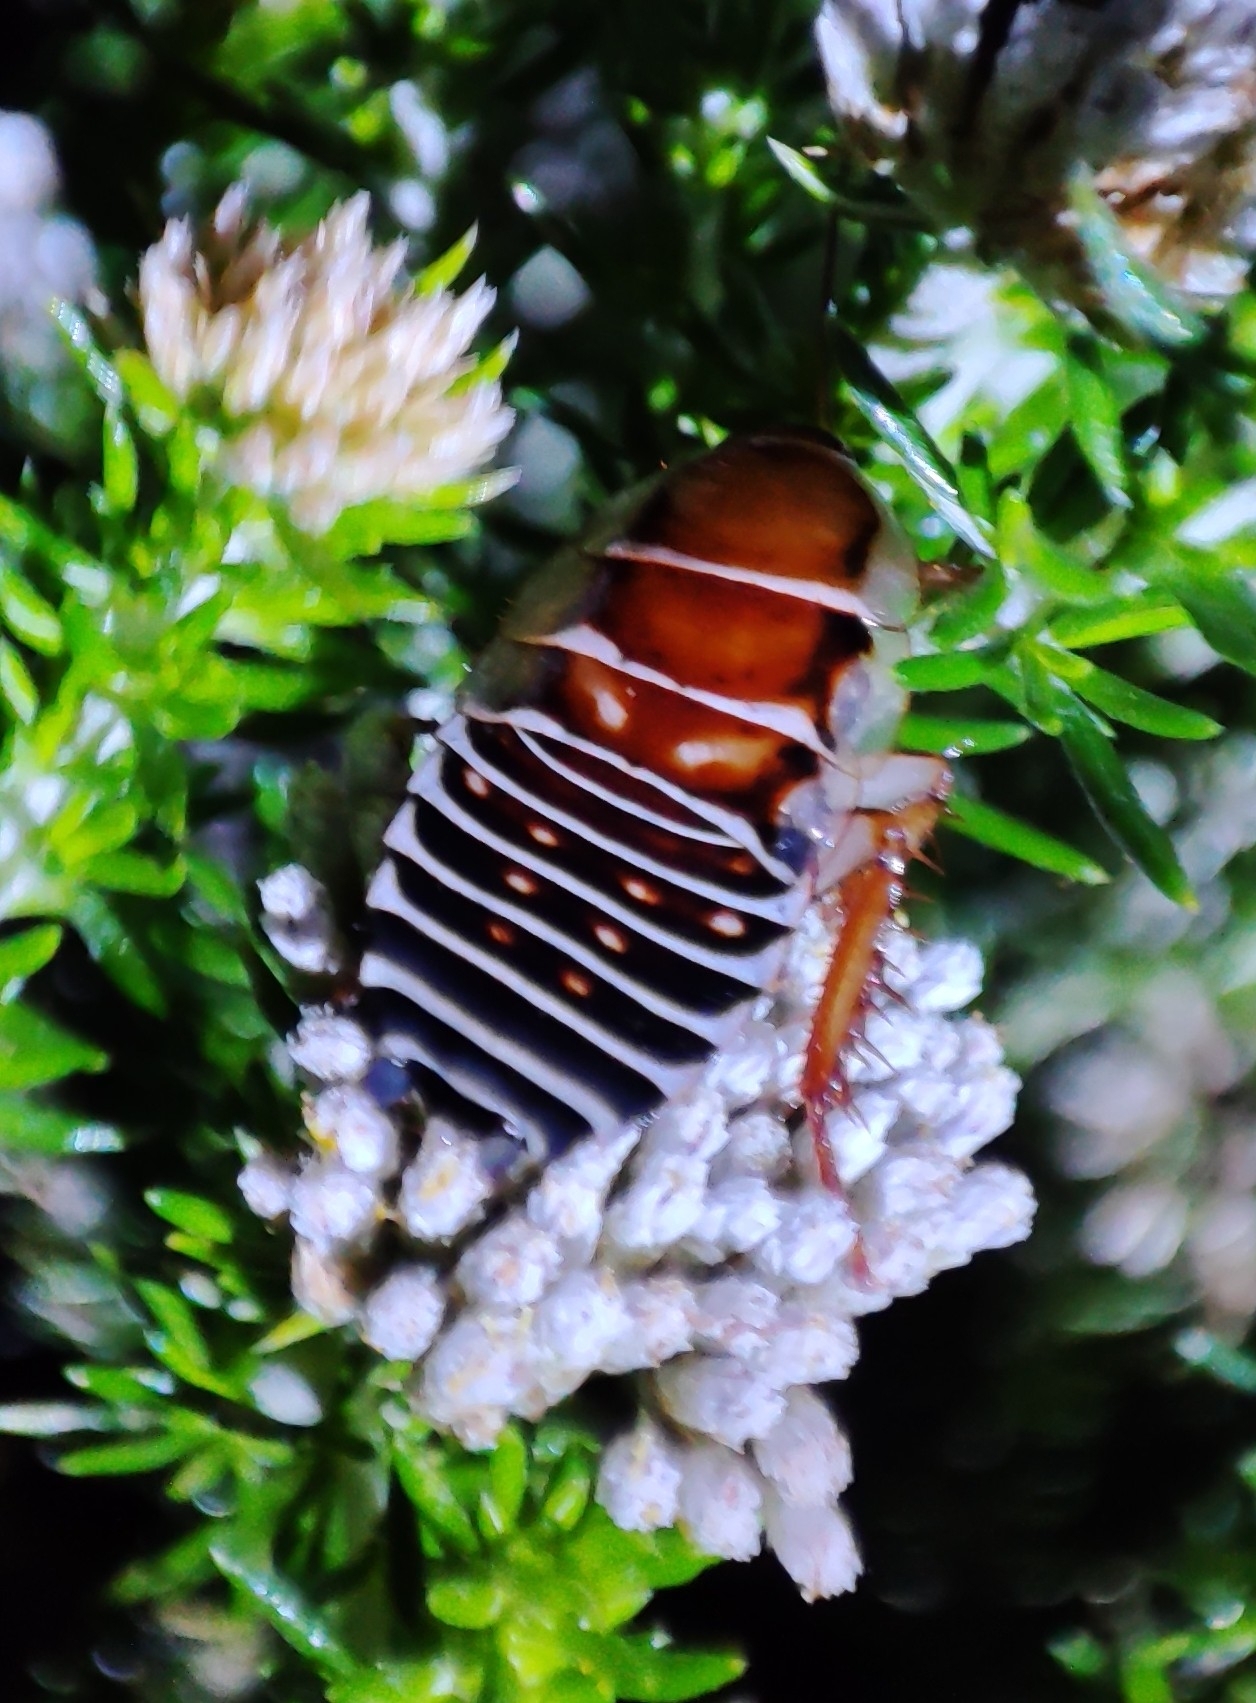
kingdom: Animalia
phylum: Arthropoda
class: Insecta
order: Blattodea
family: Ectobiidae
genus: Temnopteryx
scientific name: Temnopteryx phalerata
